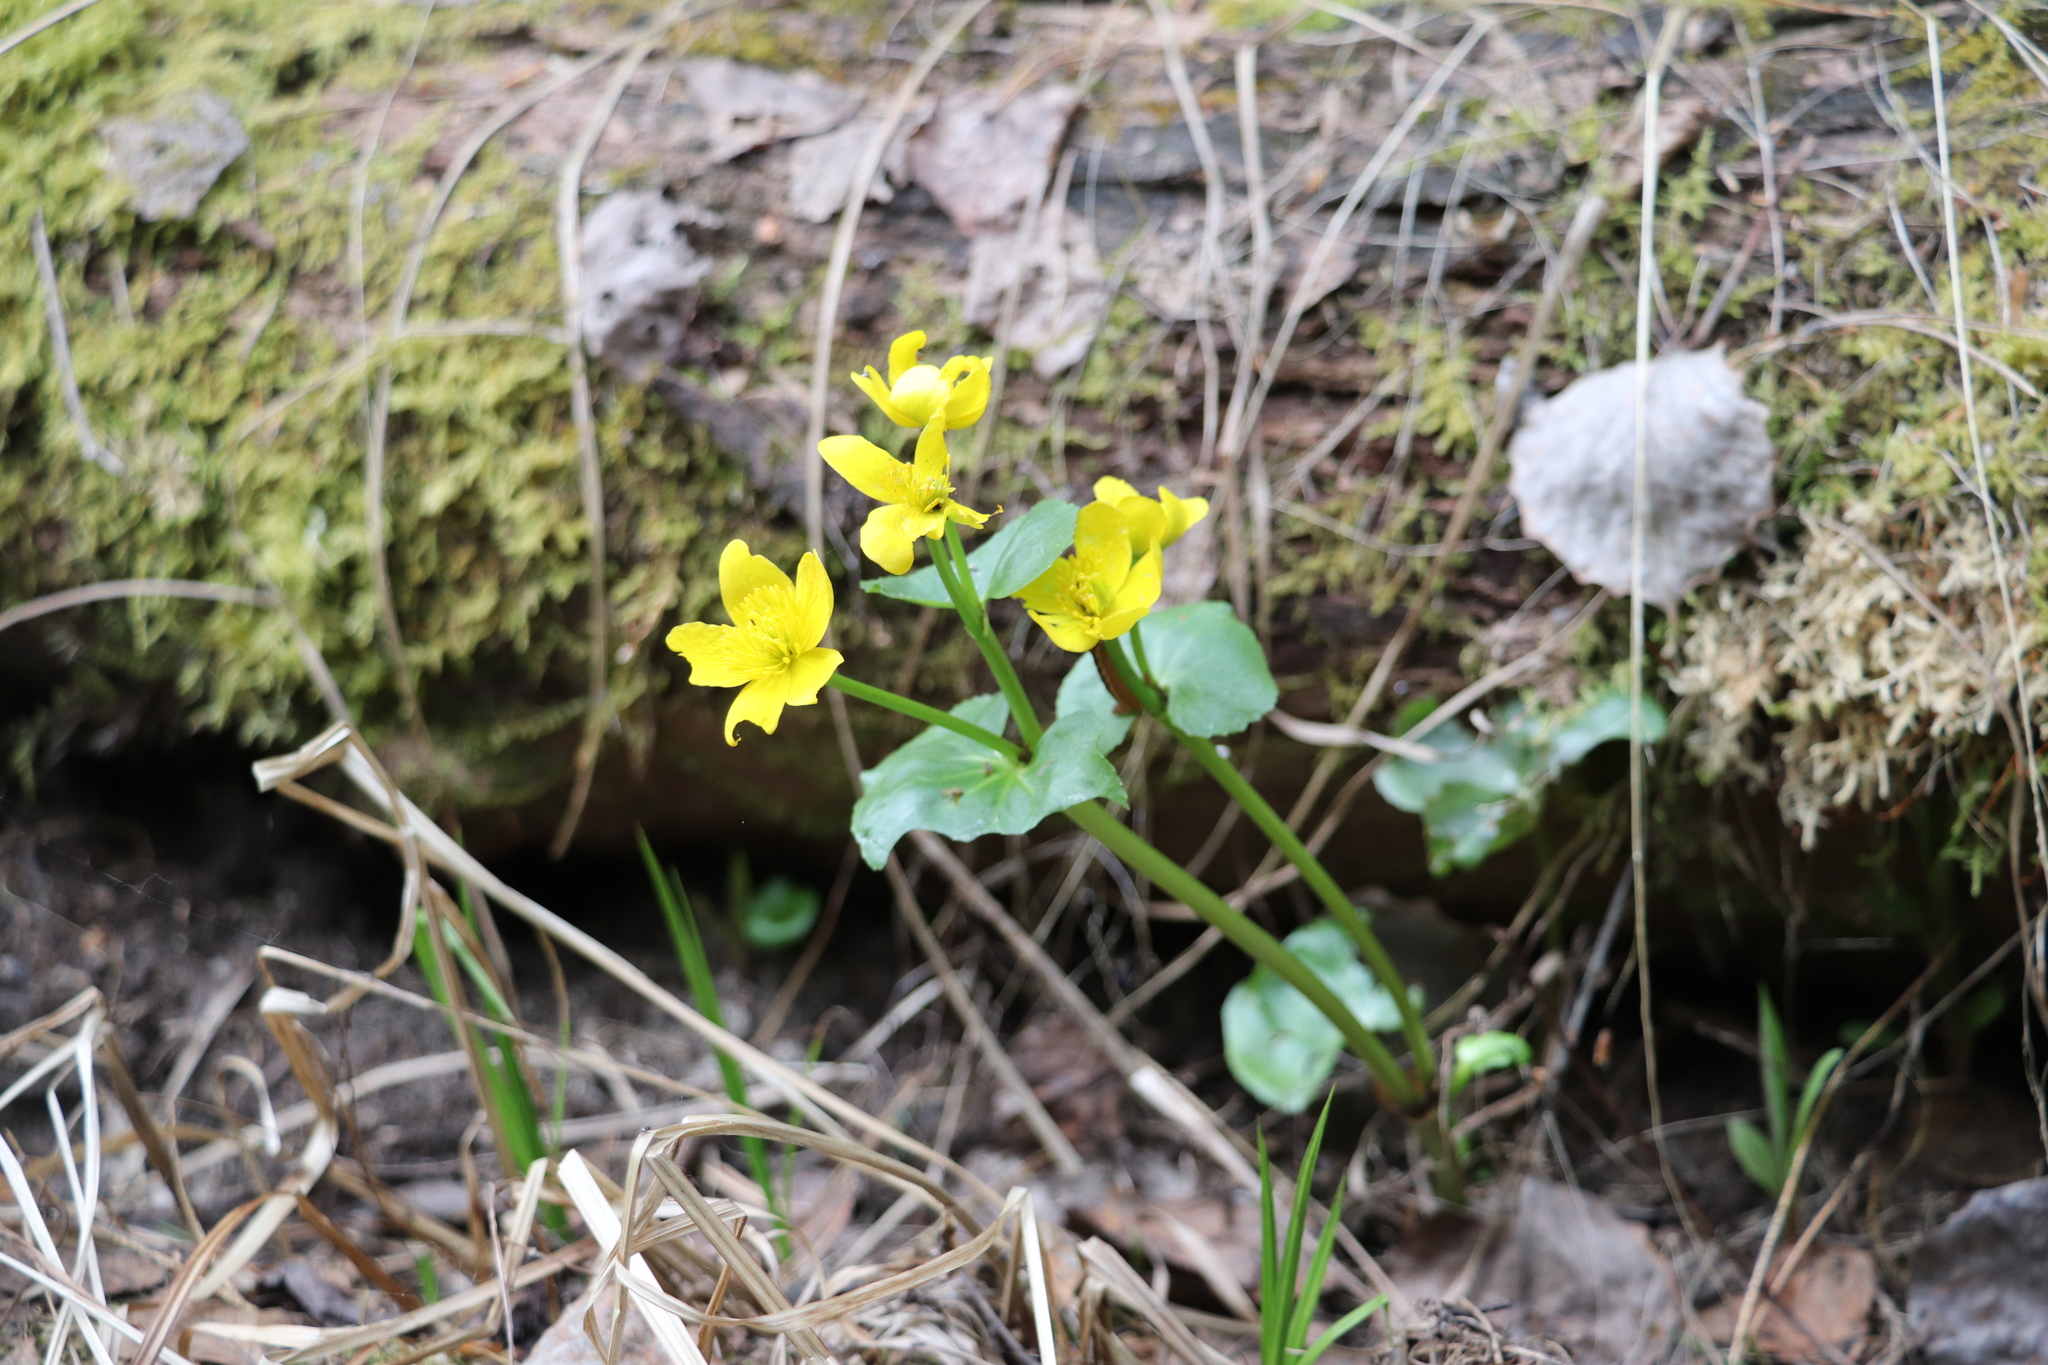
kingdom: Plantae
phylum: Tracheophyta
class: Magnoliopsida
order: Ranunculales
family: Ranunculaceae
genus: Caltha
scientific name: Caltha palustris
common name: Marsh marigold
